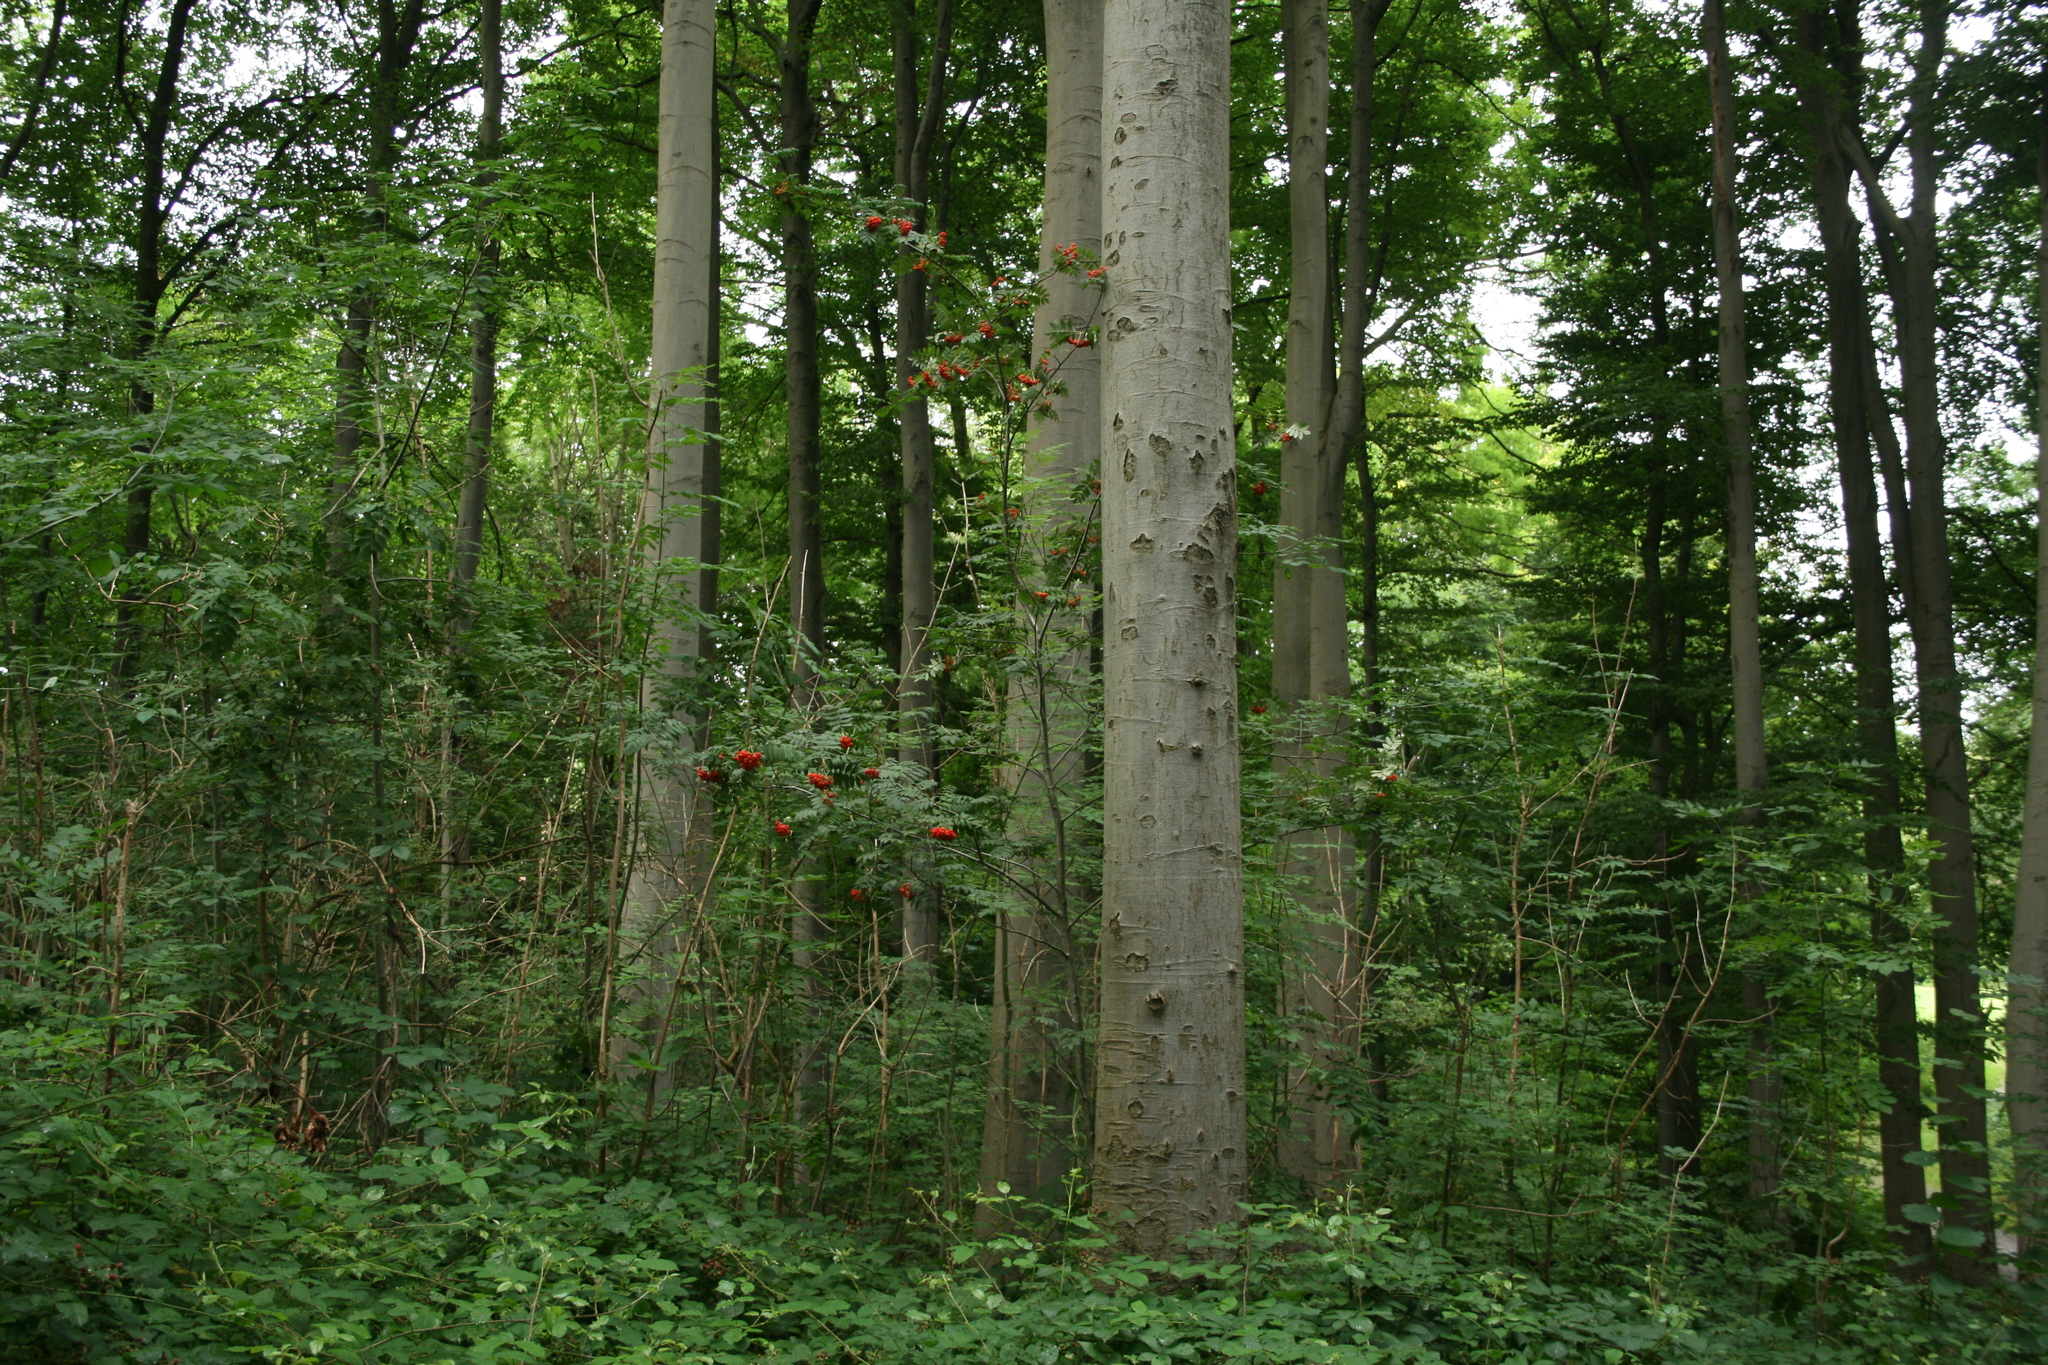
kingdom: Plantae
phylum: Tracheophyta
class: Magnoliopsida
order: Rosales
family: Rosaceae
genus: Sorbus
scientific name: Sorbus aucuparia
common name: Rowan
